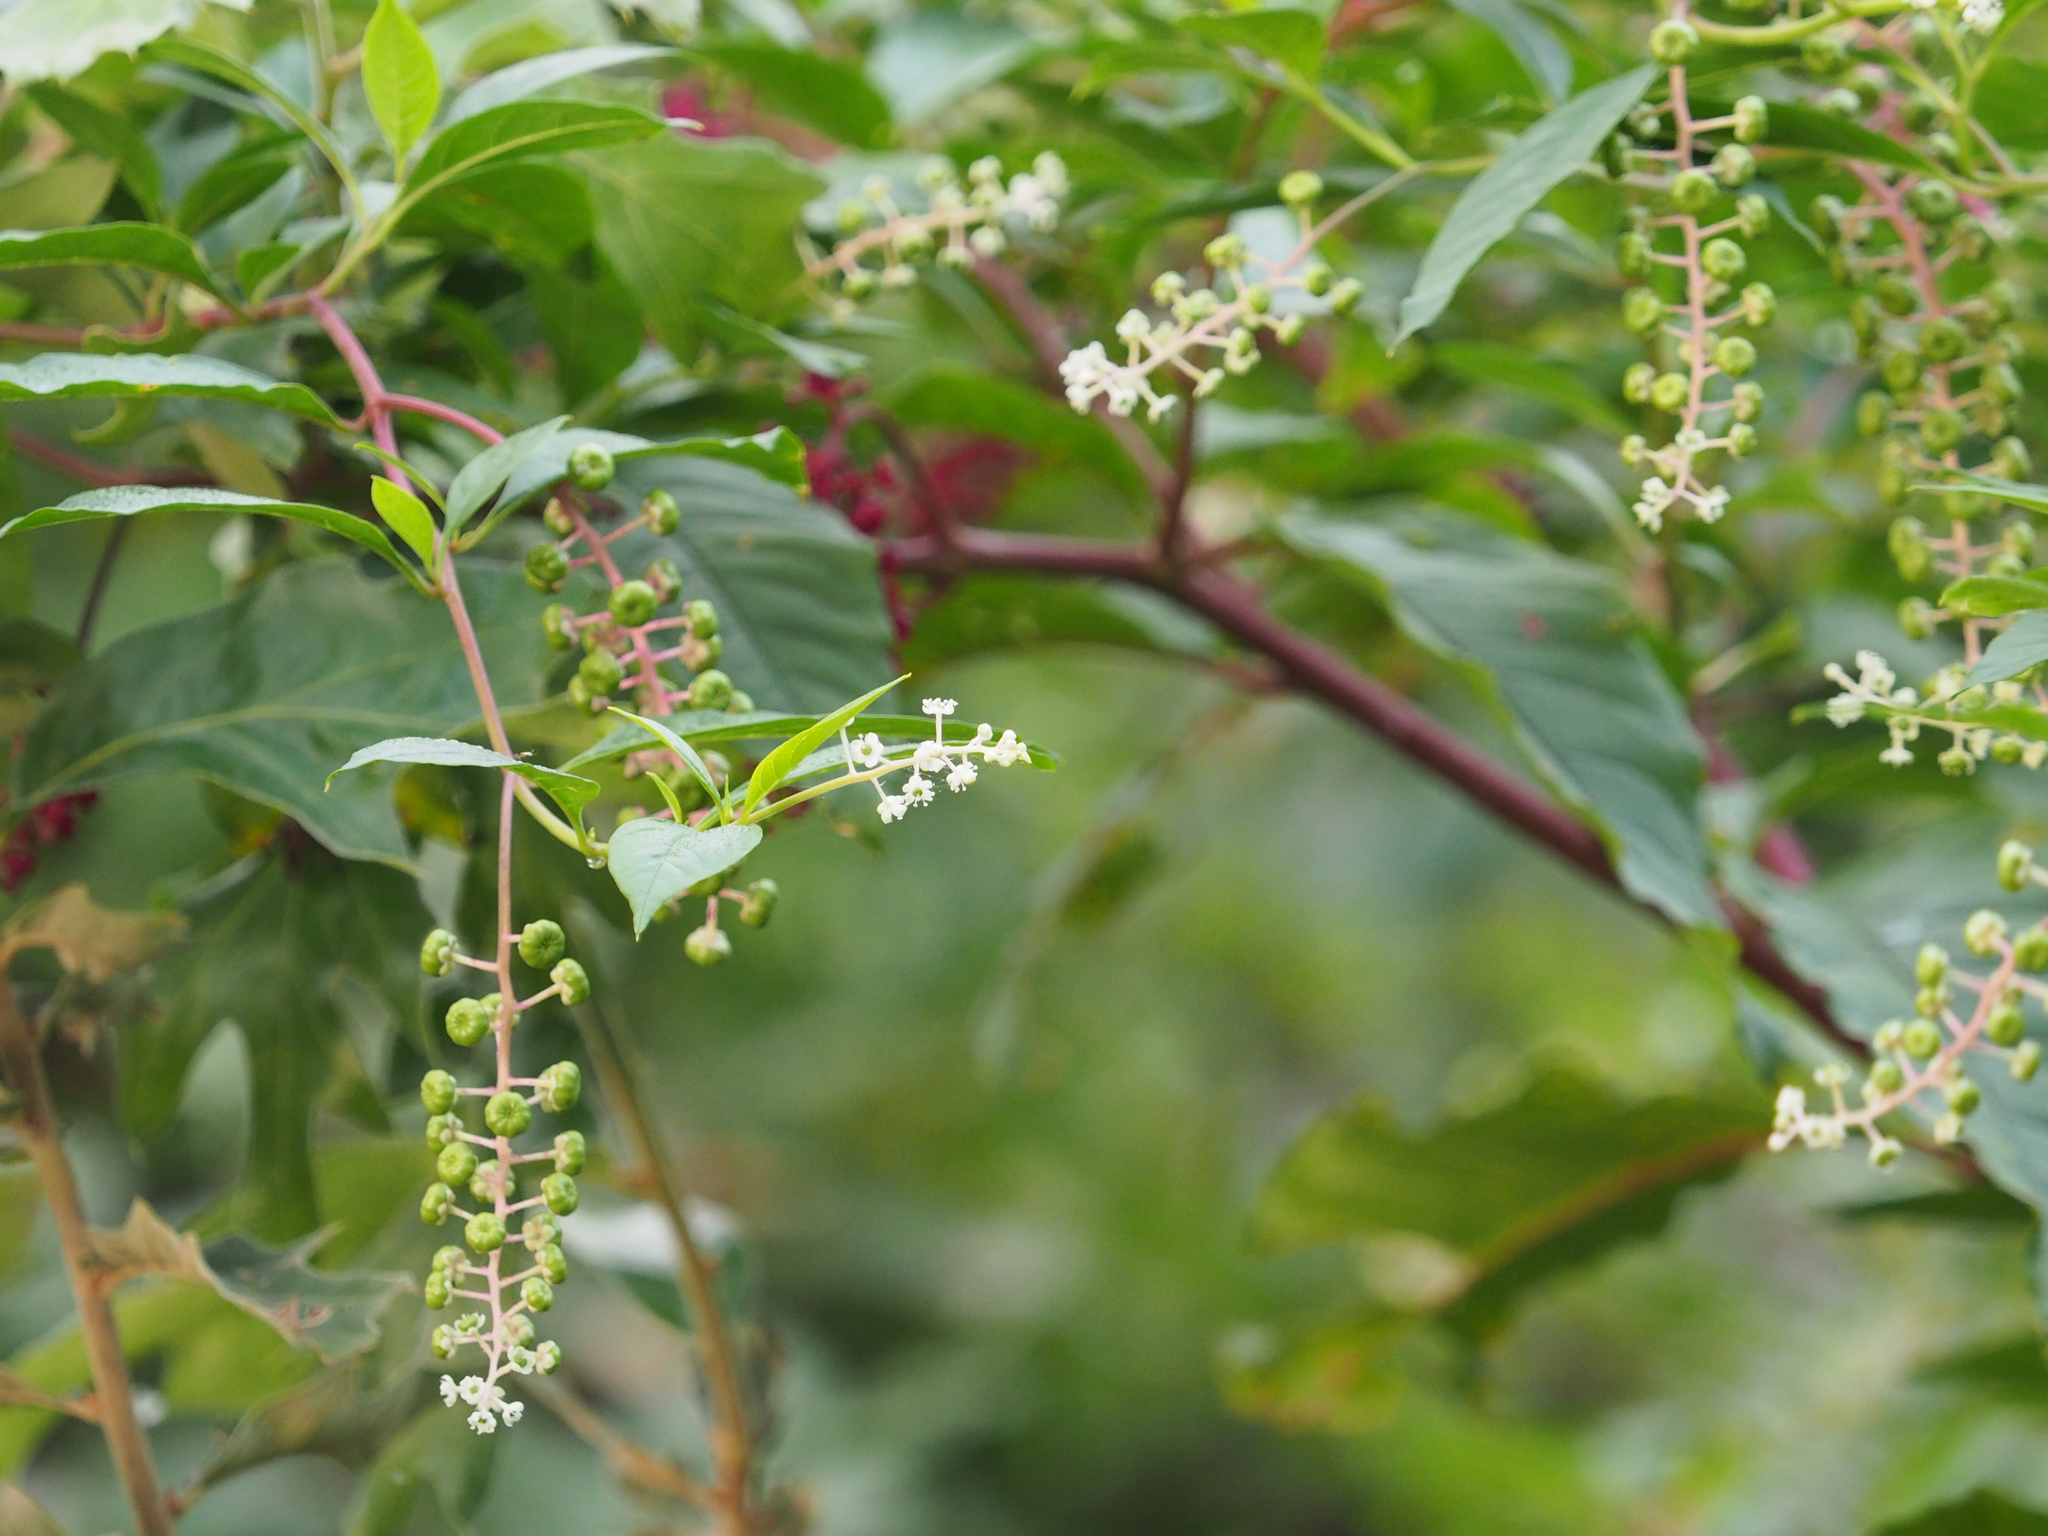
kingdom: Plantae
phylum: Tracheophyta
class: Magnoliopsida
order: Caryophyllales
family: Phytolaccaceae
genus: Phytolacca
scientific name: Phytolacca americana
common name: American pokeweed
